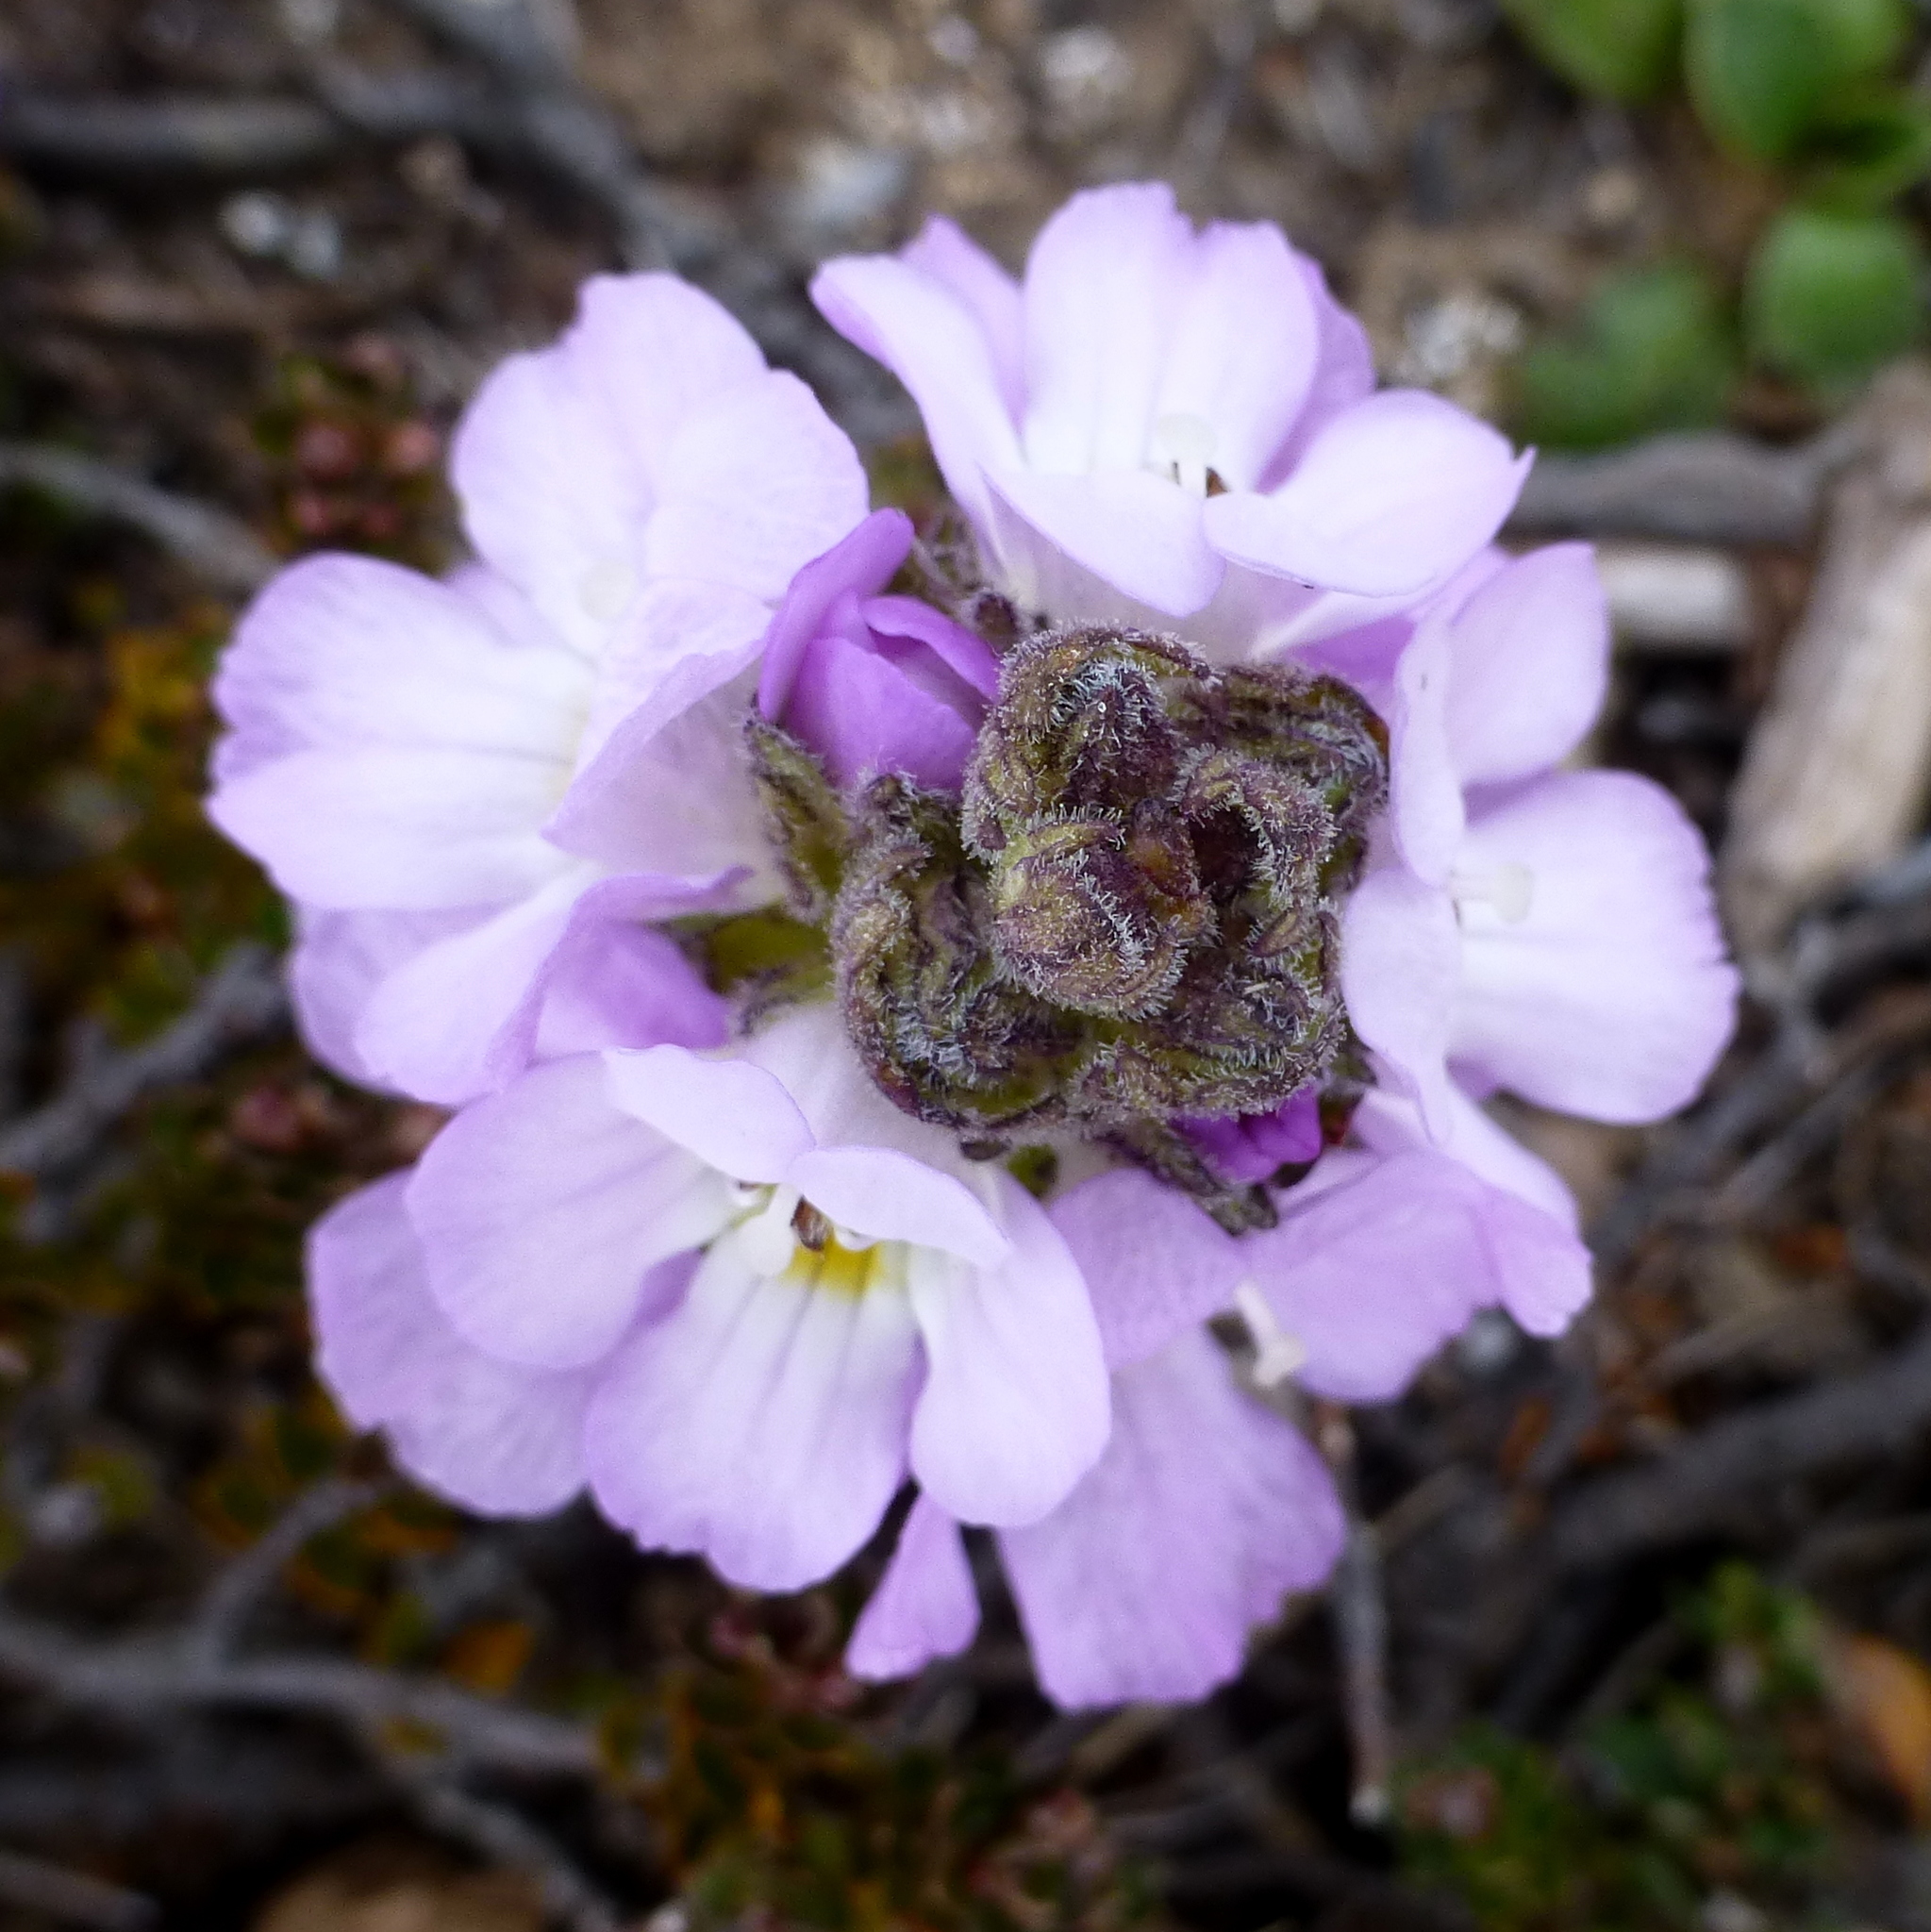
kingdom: Plantae
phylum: Tracheophyta
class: Magnoliopsida
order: Lamiales
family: Orobanchaceae
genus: Euphrasia
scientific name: Euphrasia collina
